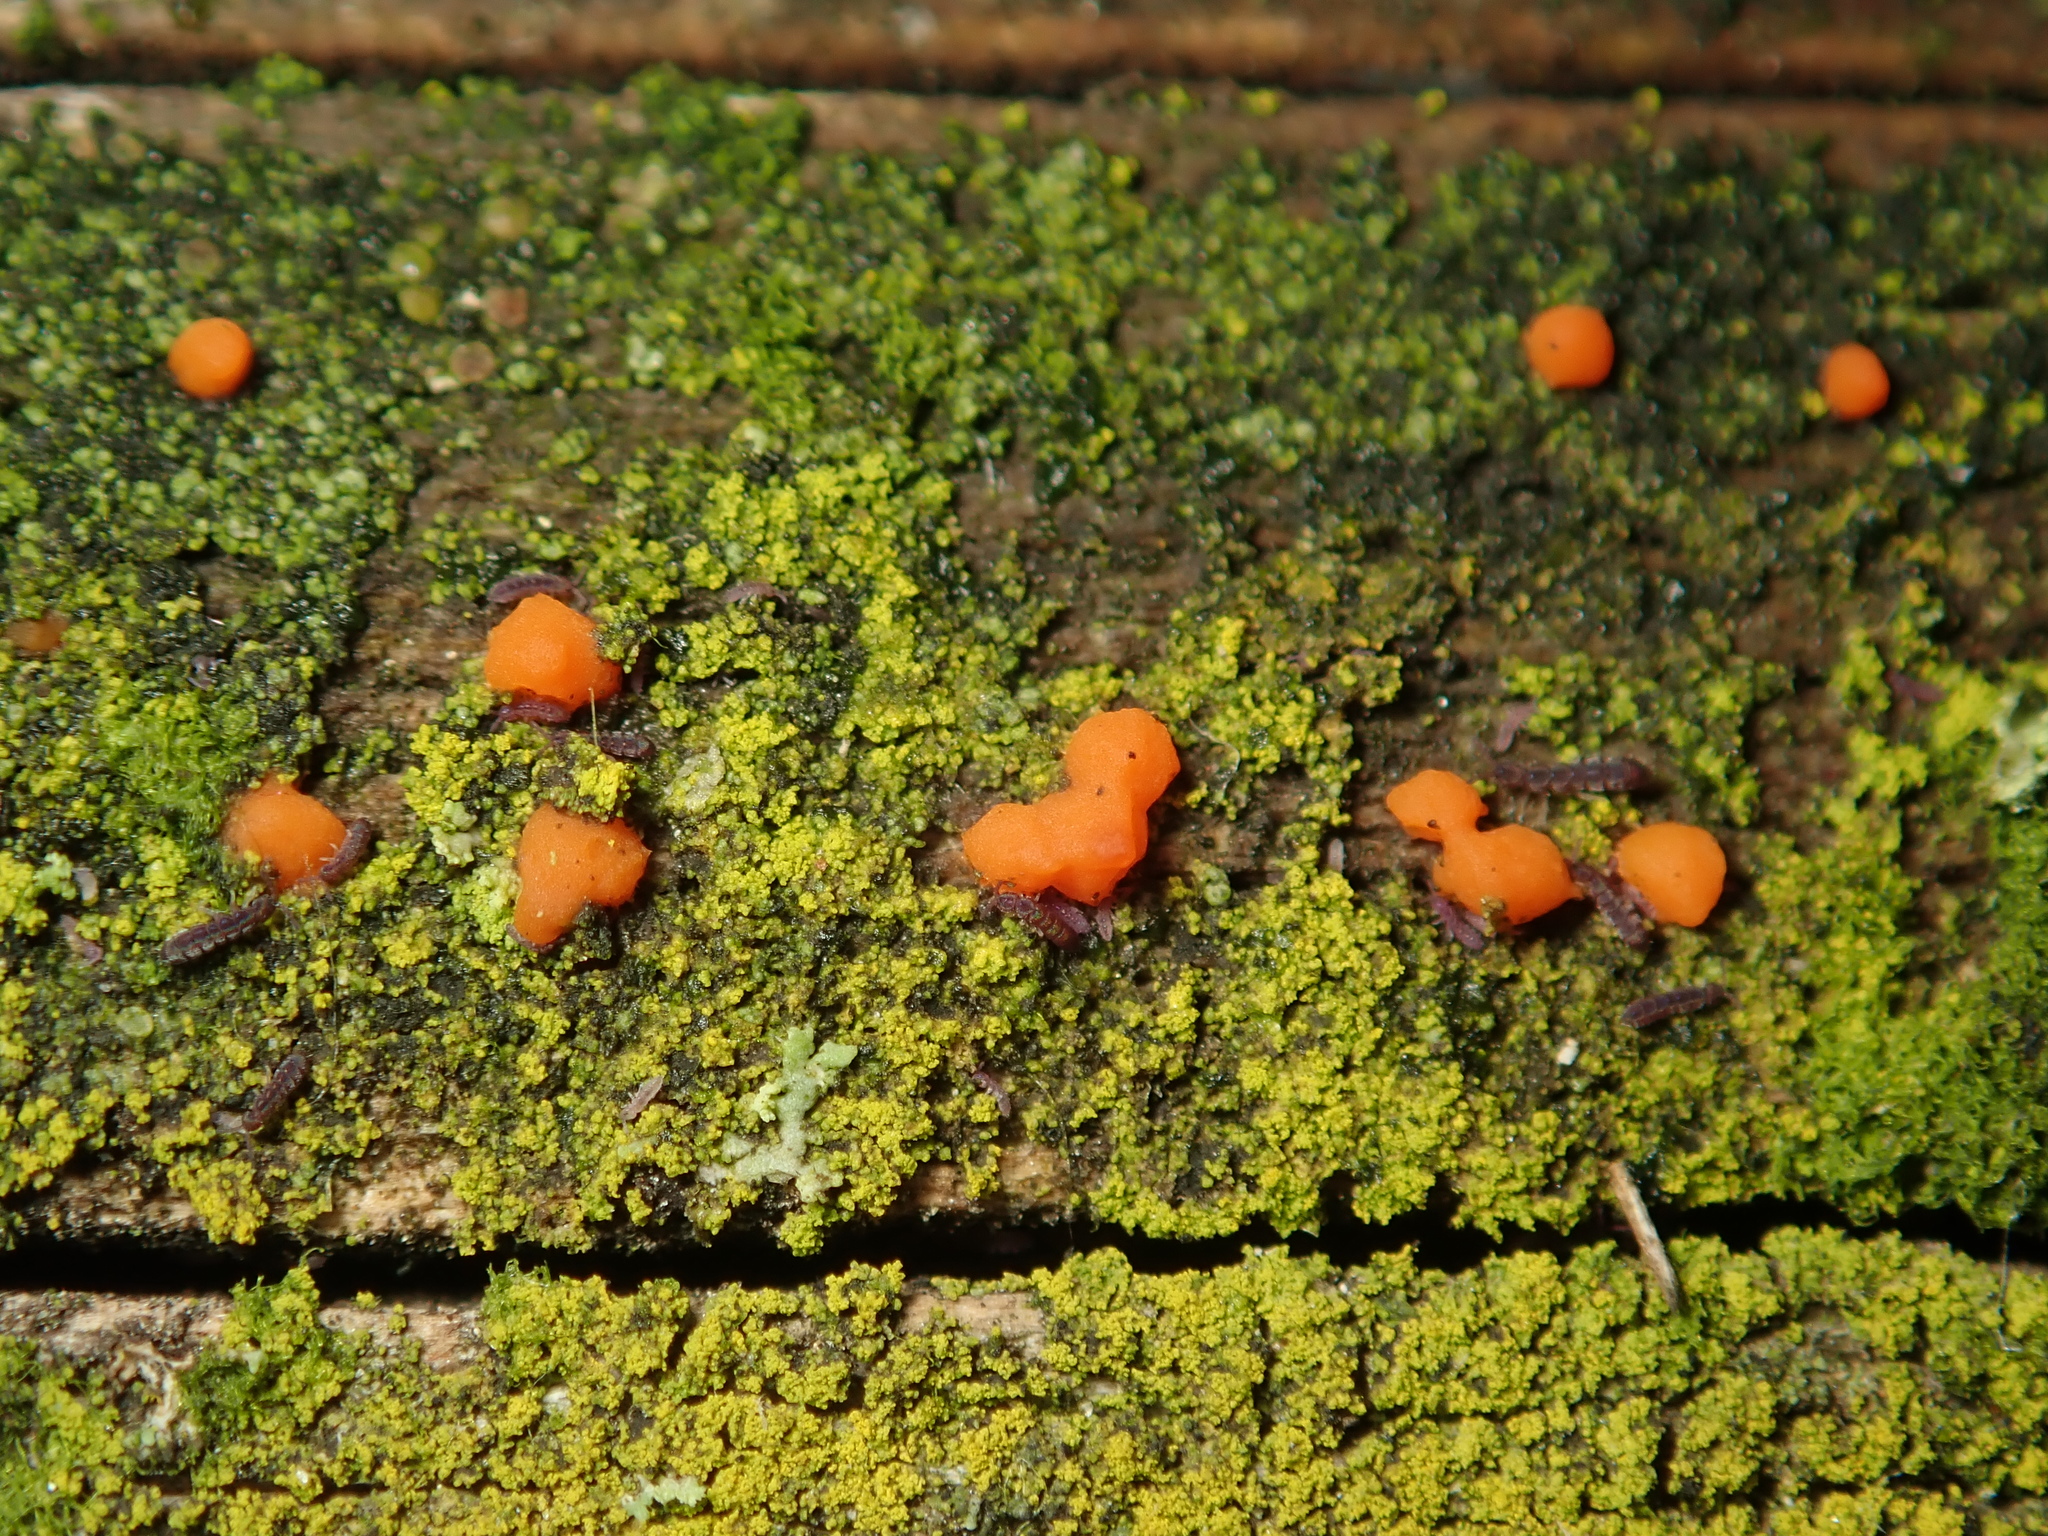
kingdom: Fungi
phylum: Basidiomycota
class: Dacrymycetes
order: Dacrymycetales
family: Dacrymycetaceae
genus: Dacrymyces
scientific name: Dacrymyces stillatus
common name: Common jelly spot
